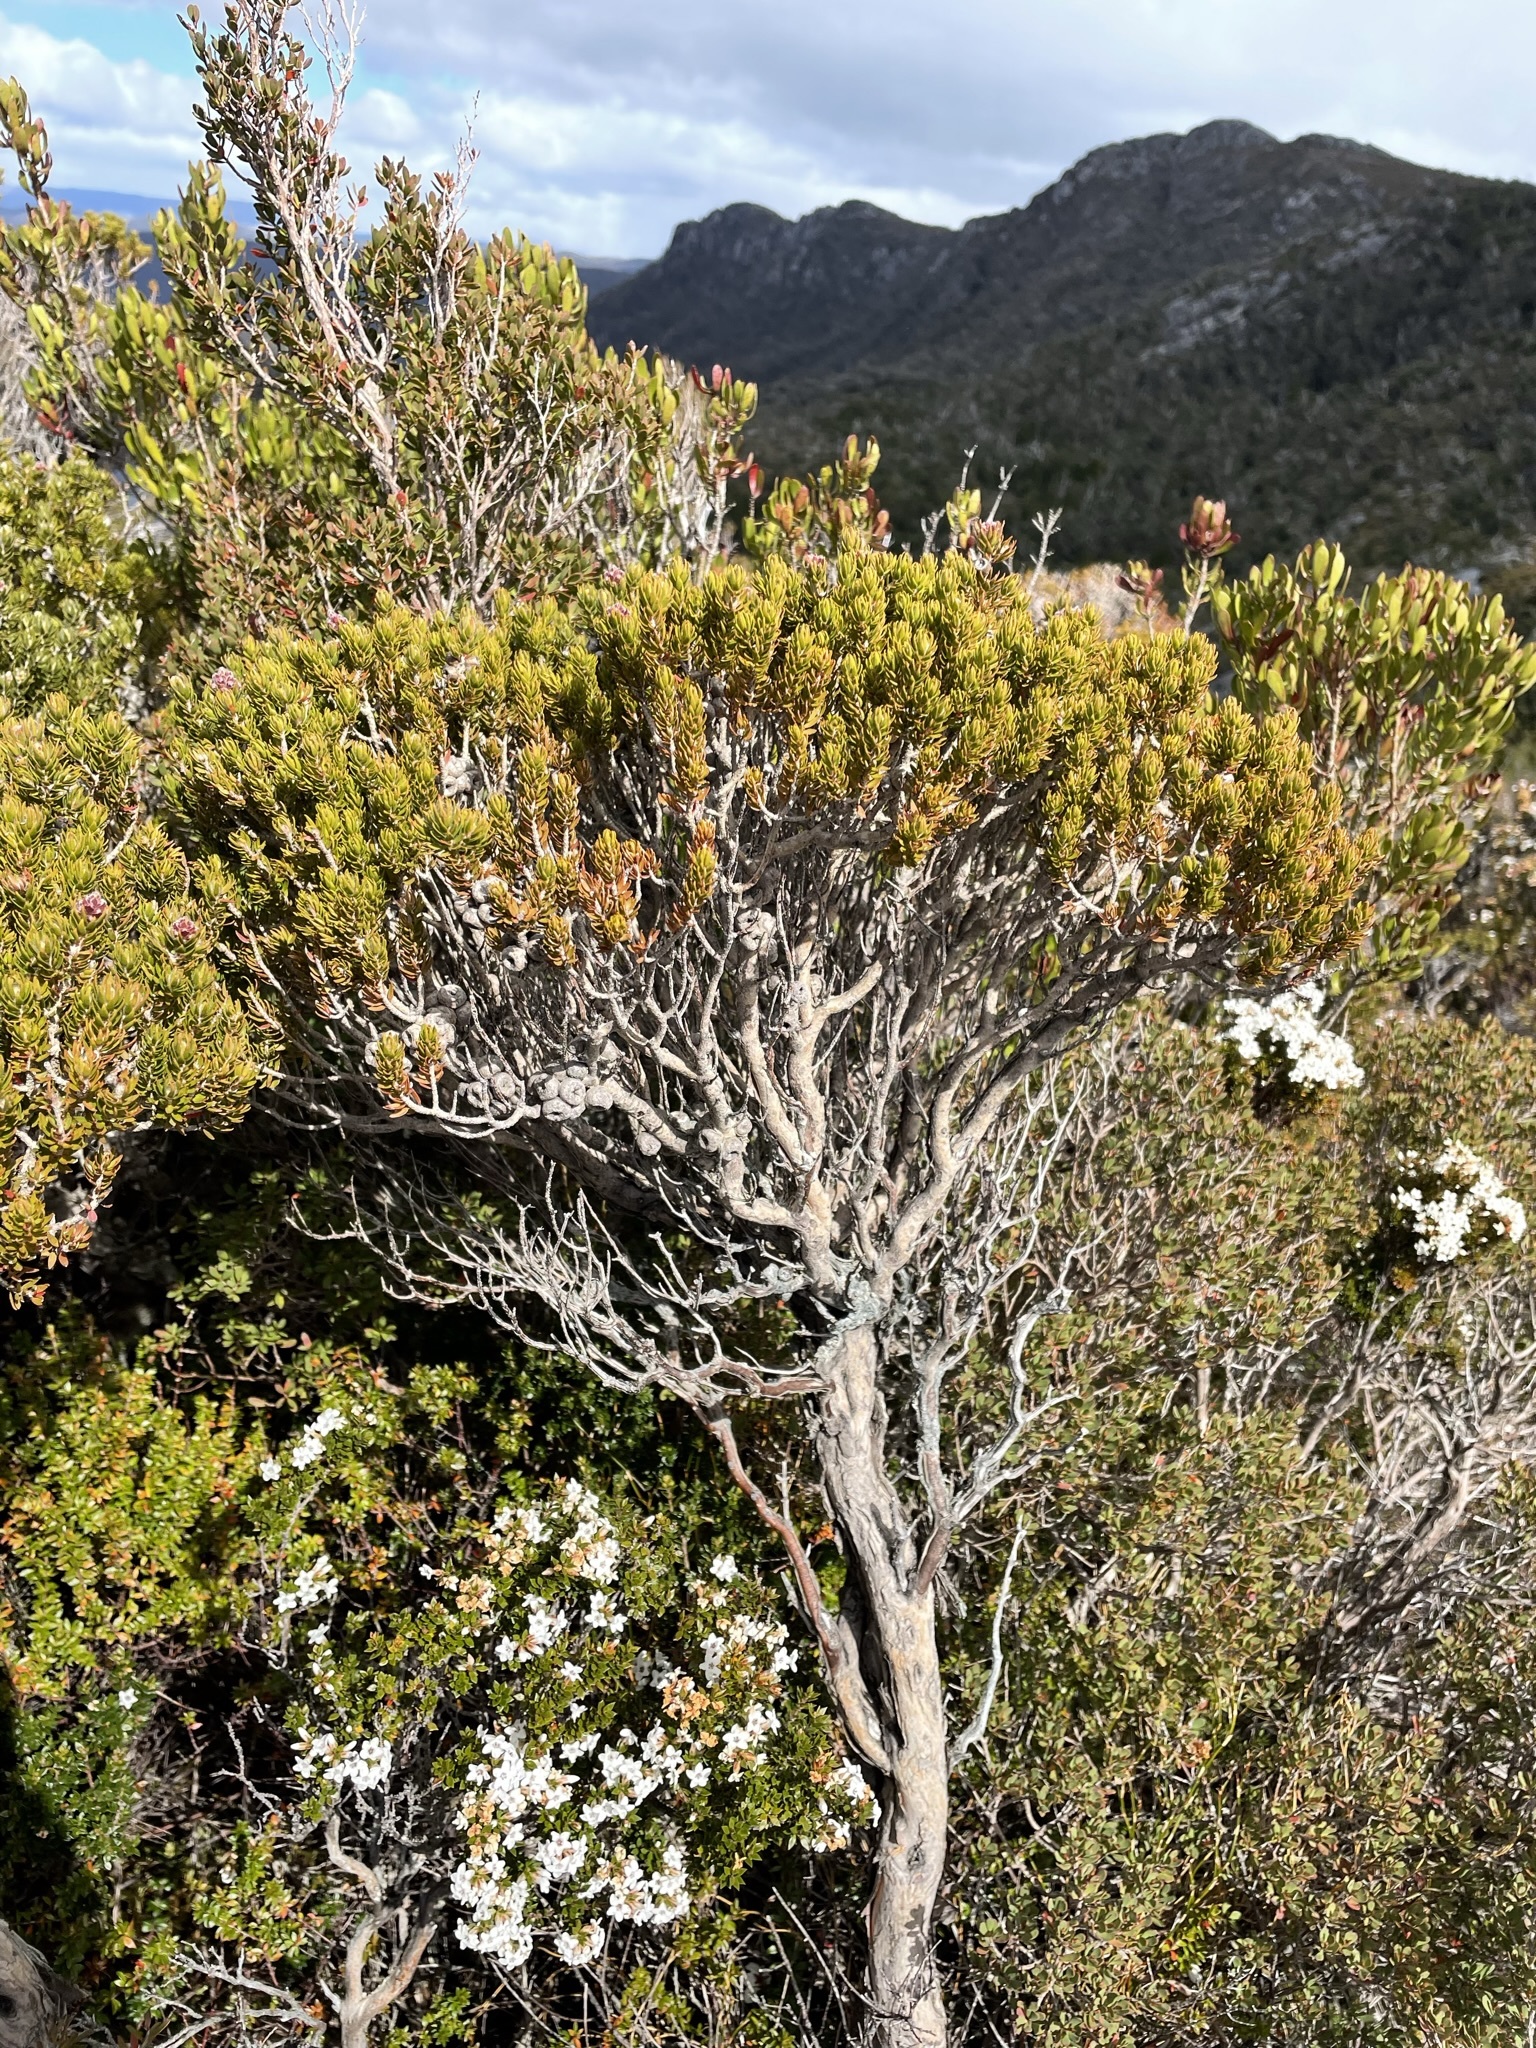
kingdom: Plantae
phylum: Tracheophyta
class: Magnoliopsida
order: Myrtales
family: Myrtaceae
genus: Melaleuca
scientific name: Melaleuca squamea
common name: Swamp melaleuca
